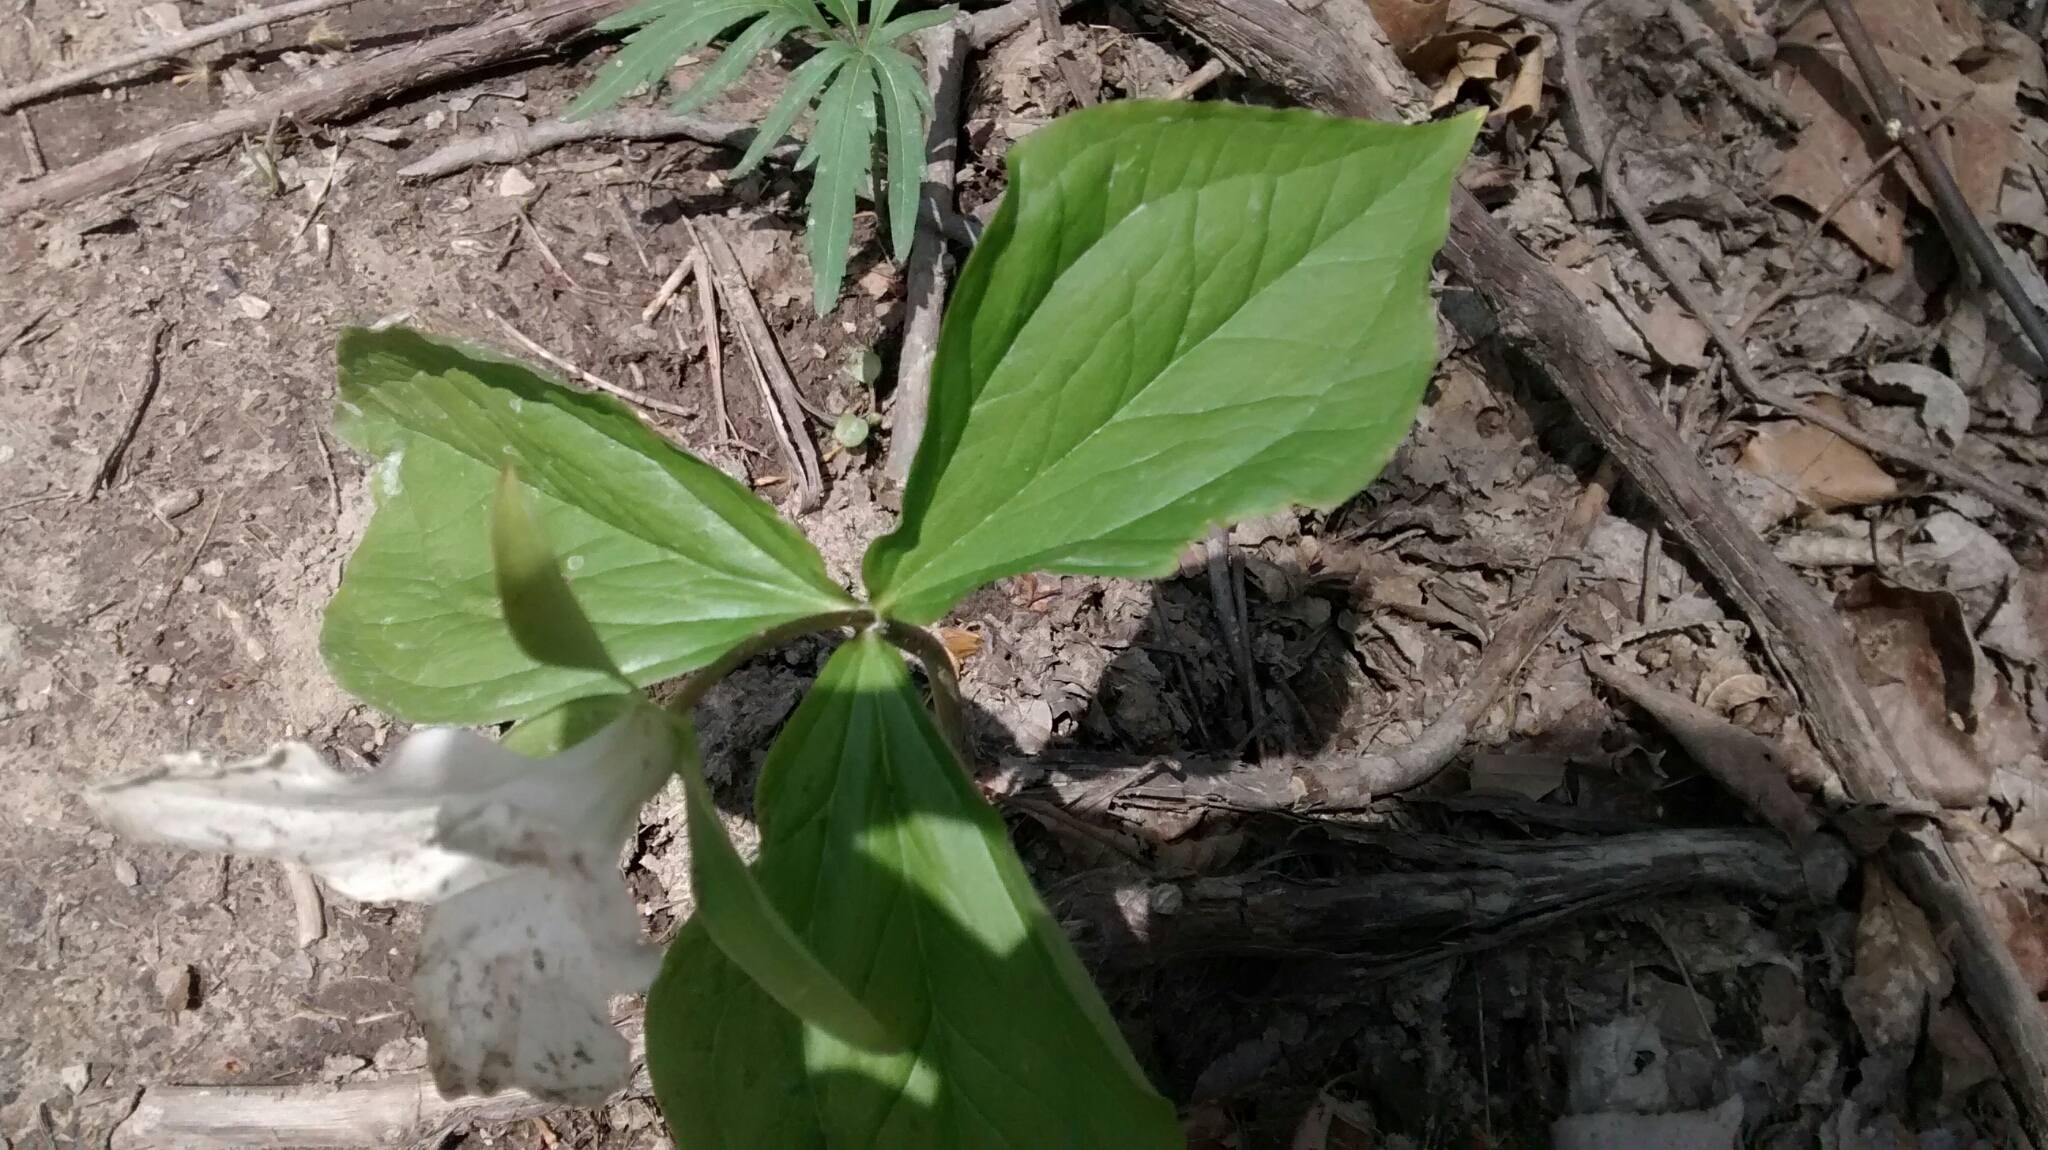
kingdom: Plantae
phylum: Tracheophyta
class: Liliopsida
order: Liliales
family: Melanthiaceae
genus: Trillium
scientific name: Trillium grandiflorum
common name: Great white trillium
